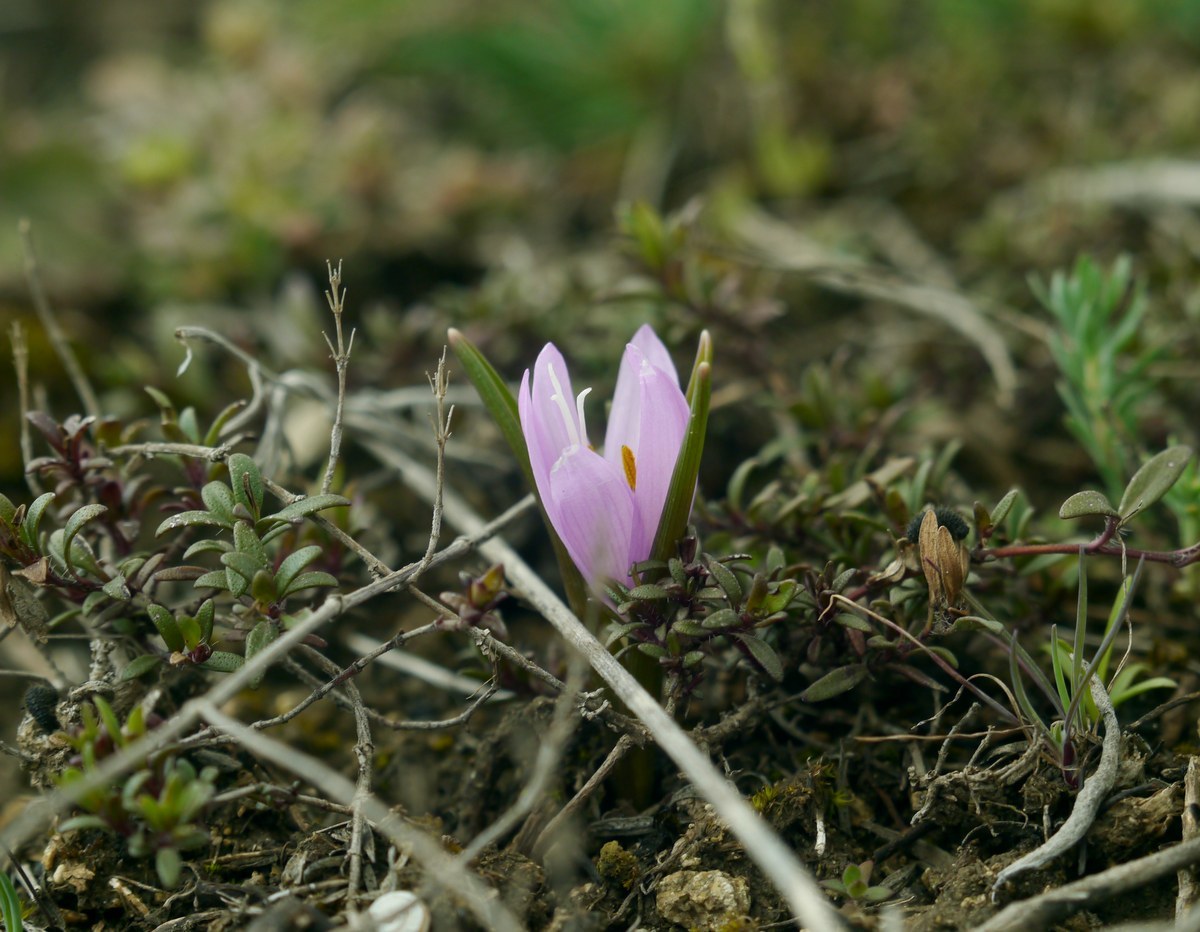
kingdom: Plantae
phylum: Tracheophyta
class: Liliopsida
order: Liliales
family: Colchicaceae
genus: Colchicum
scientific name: Colchicum bulbocodium
